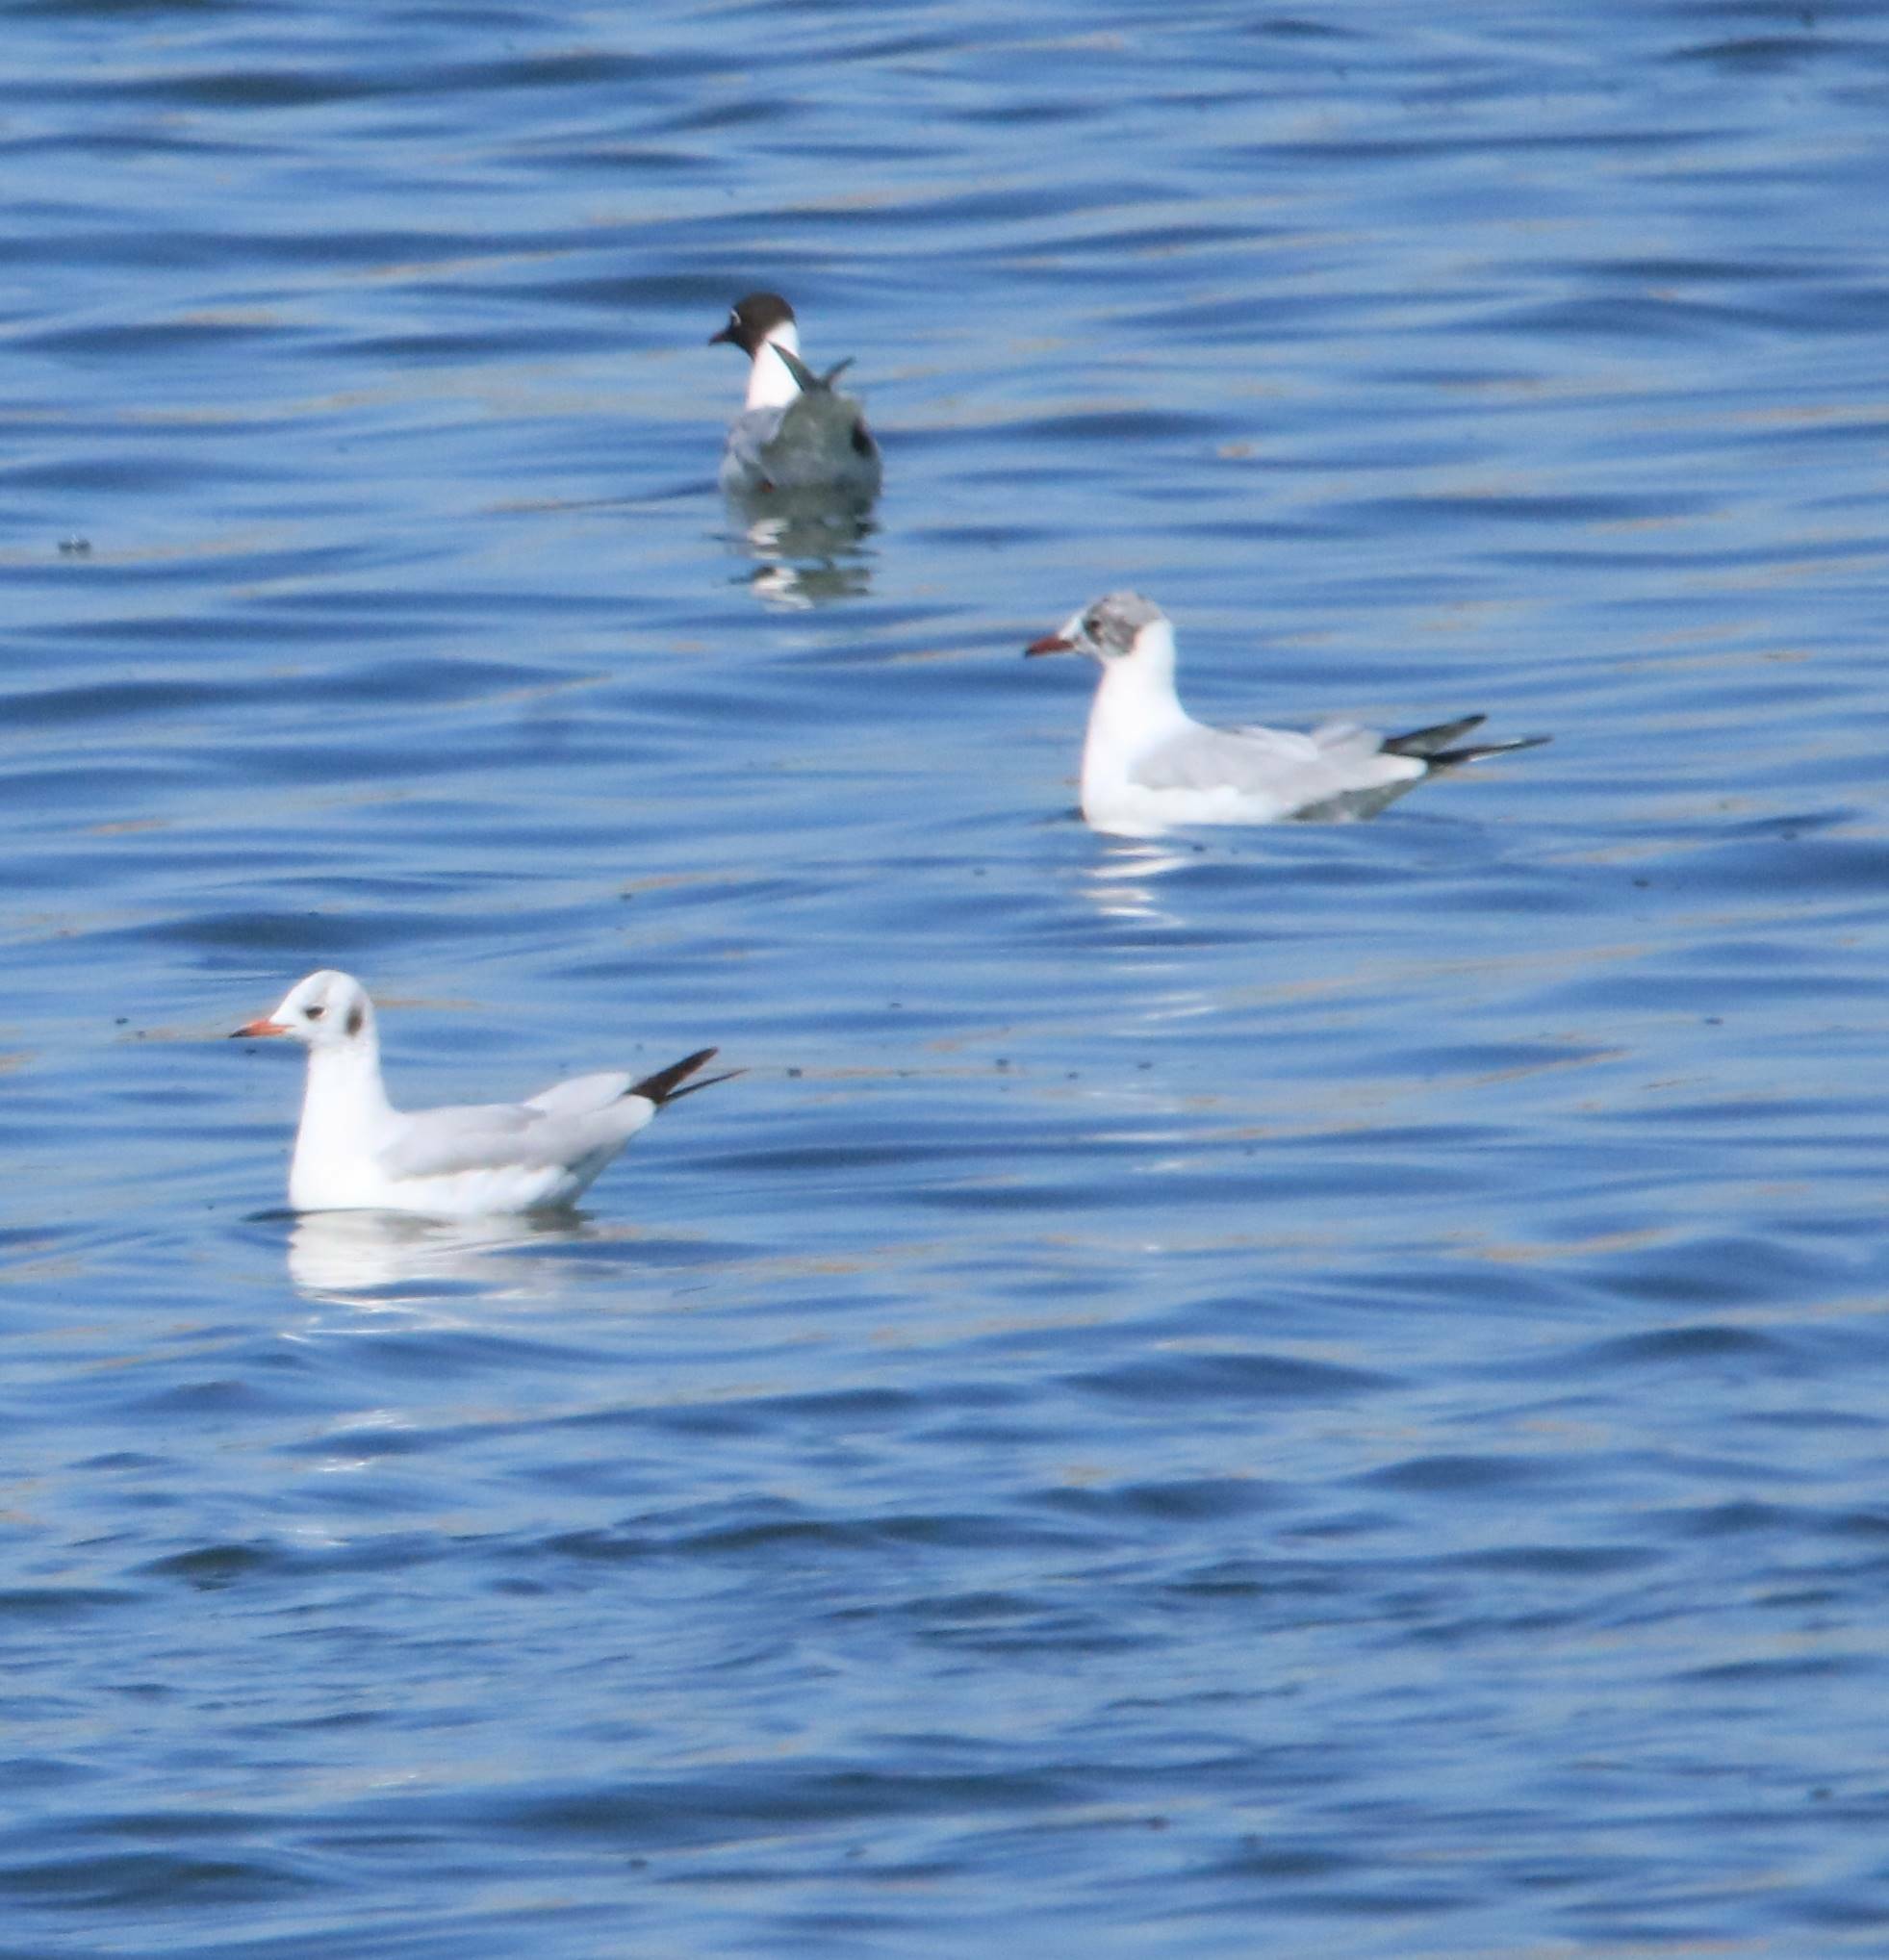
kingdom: Animalia
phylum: Chordata
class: Aves
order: Charadriiformes
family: Laridae
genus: Chroicocephalus
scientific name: Chroicocephalus ridibundus
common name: Black-headed gull
